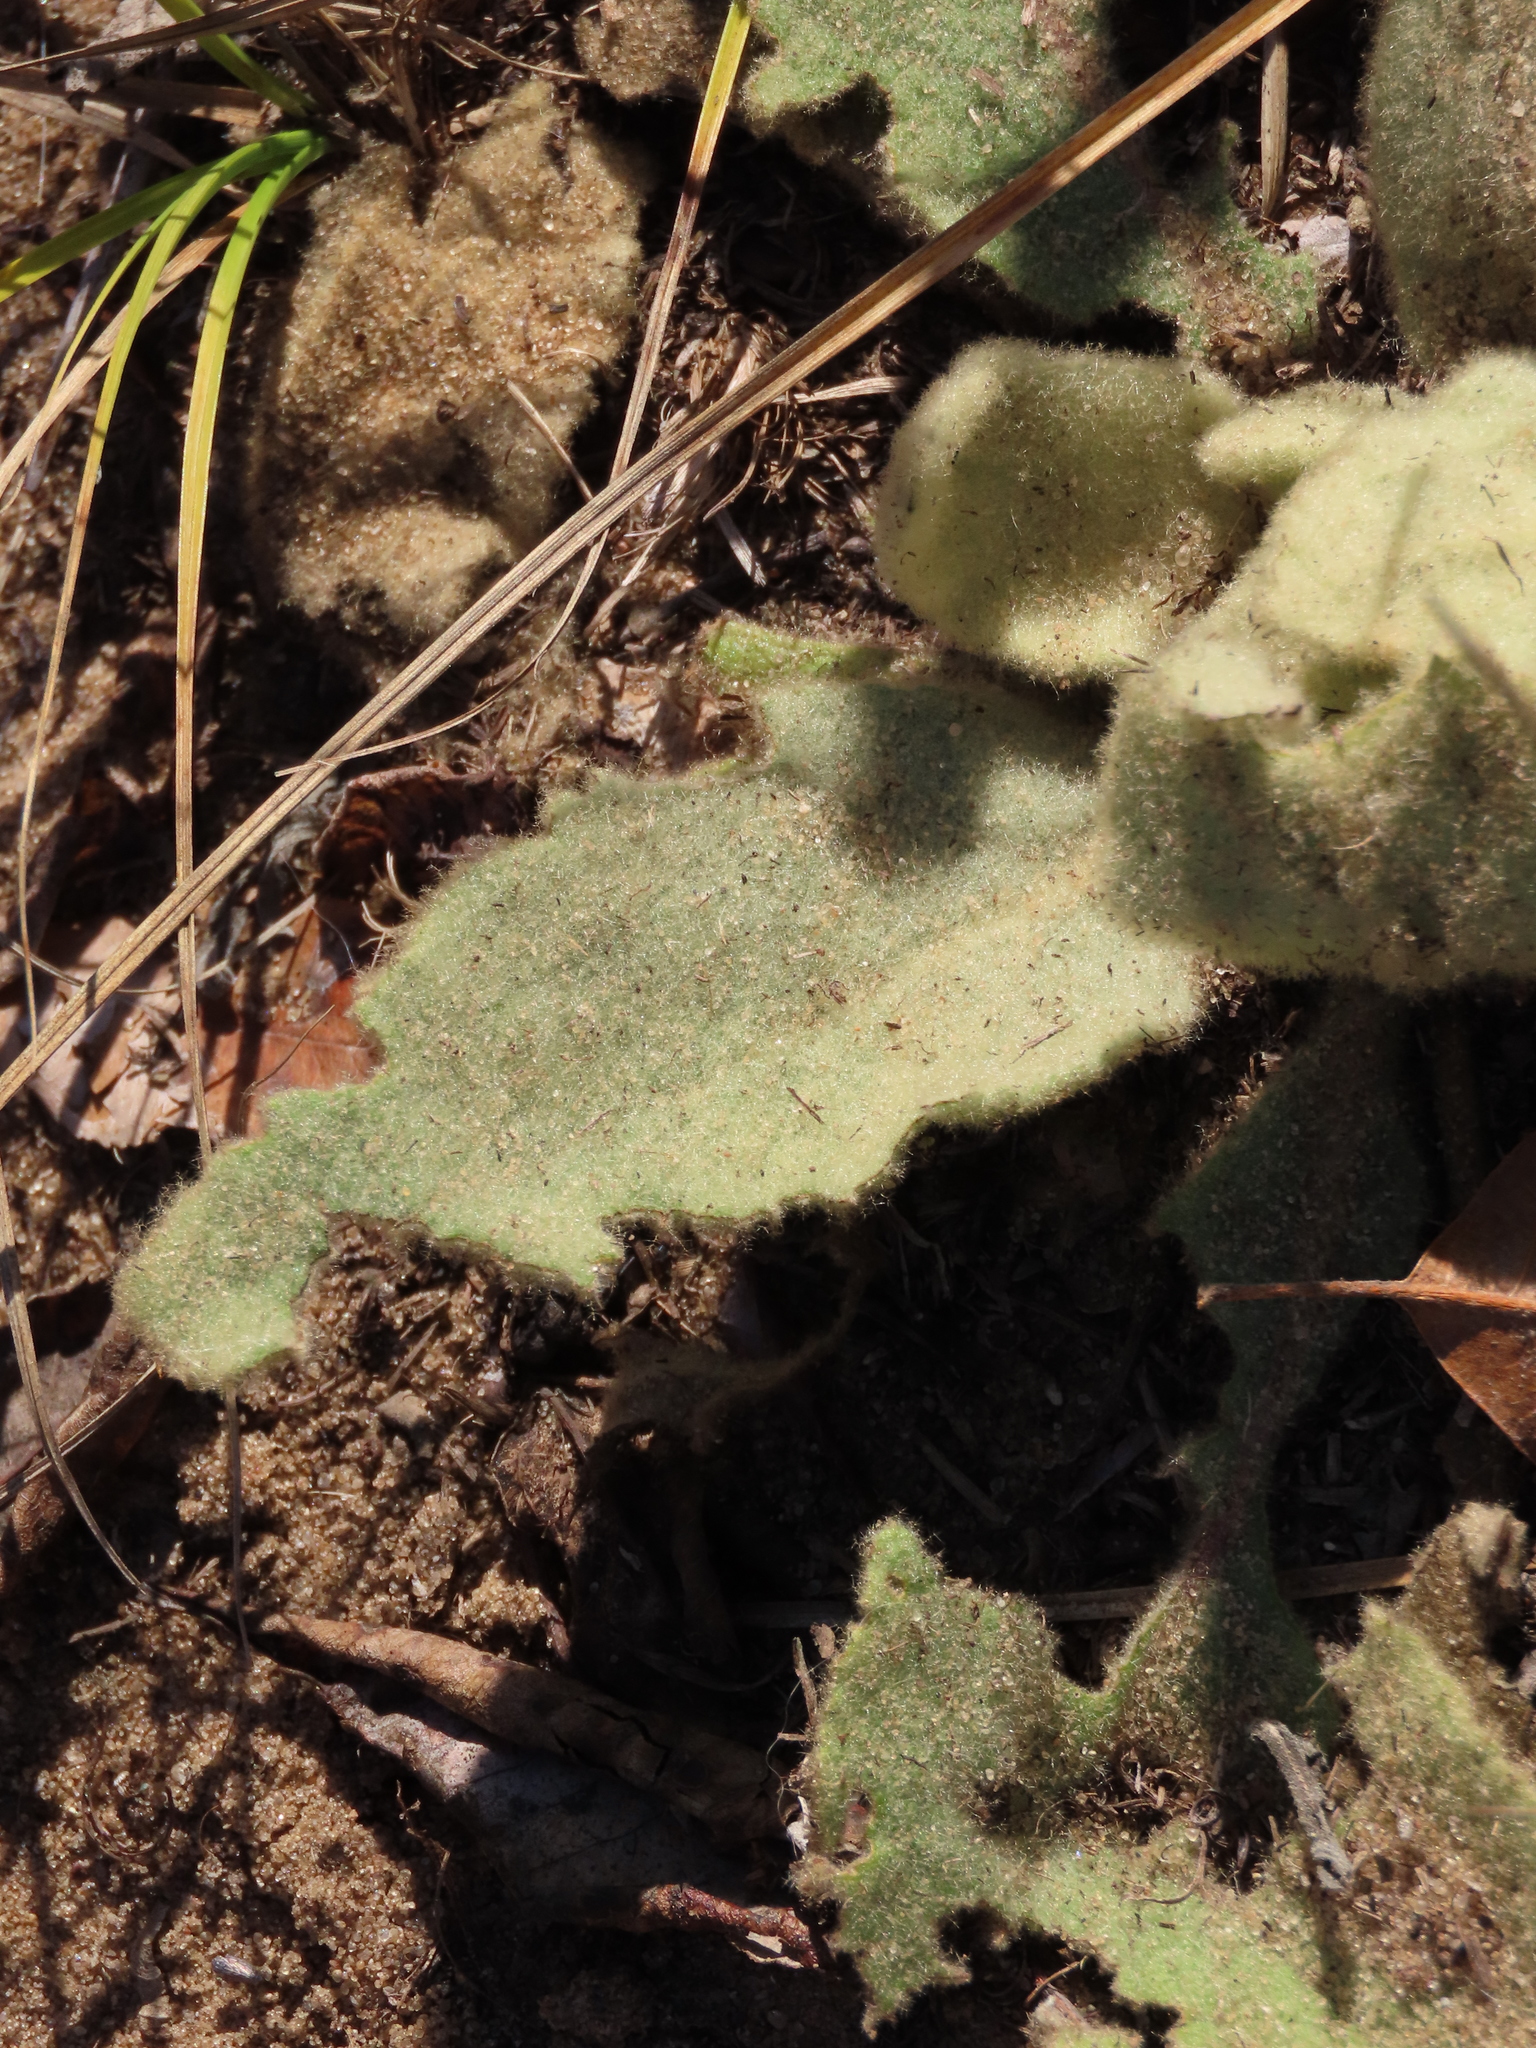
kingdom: Plantae
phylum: Tracheophyta
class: Magnoliopsida
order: Lamiales
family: Scrophulariaceae
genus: Verbascum
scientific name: Verbascum thapsus
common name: Common mullein
